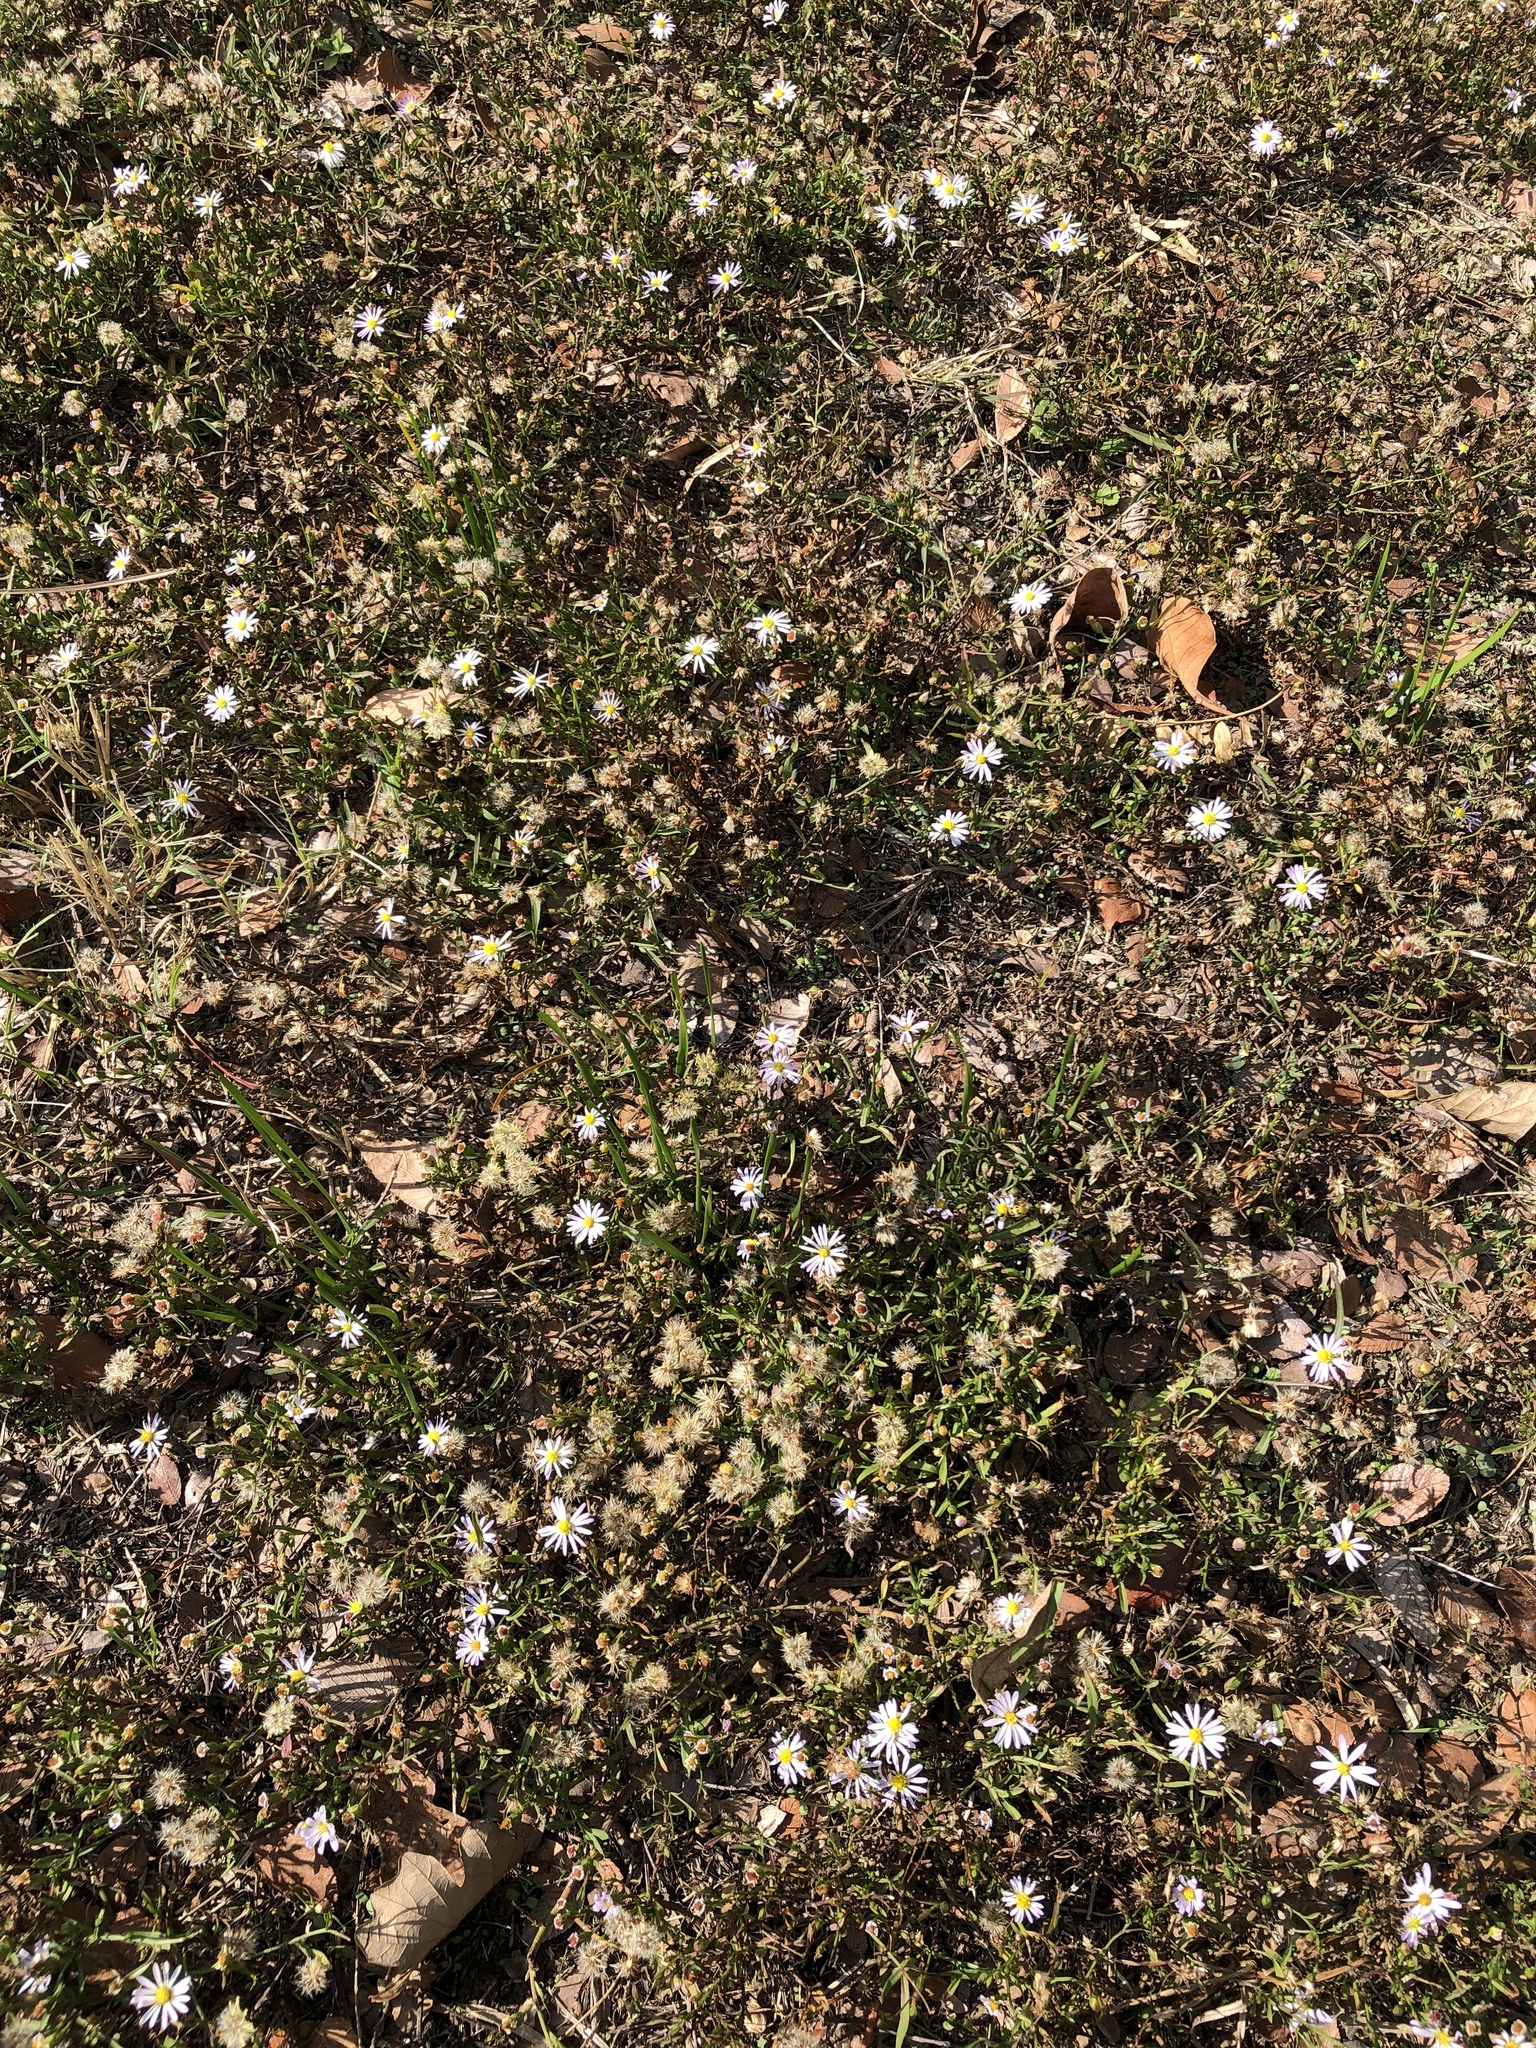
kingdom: Plantae
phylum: Tracheophyta
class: Magnoliopsida
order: Asterales
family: Asteraceae
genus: Symphyotrichum
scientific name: Symphyotrichum divaricatum
